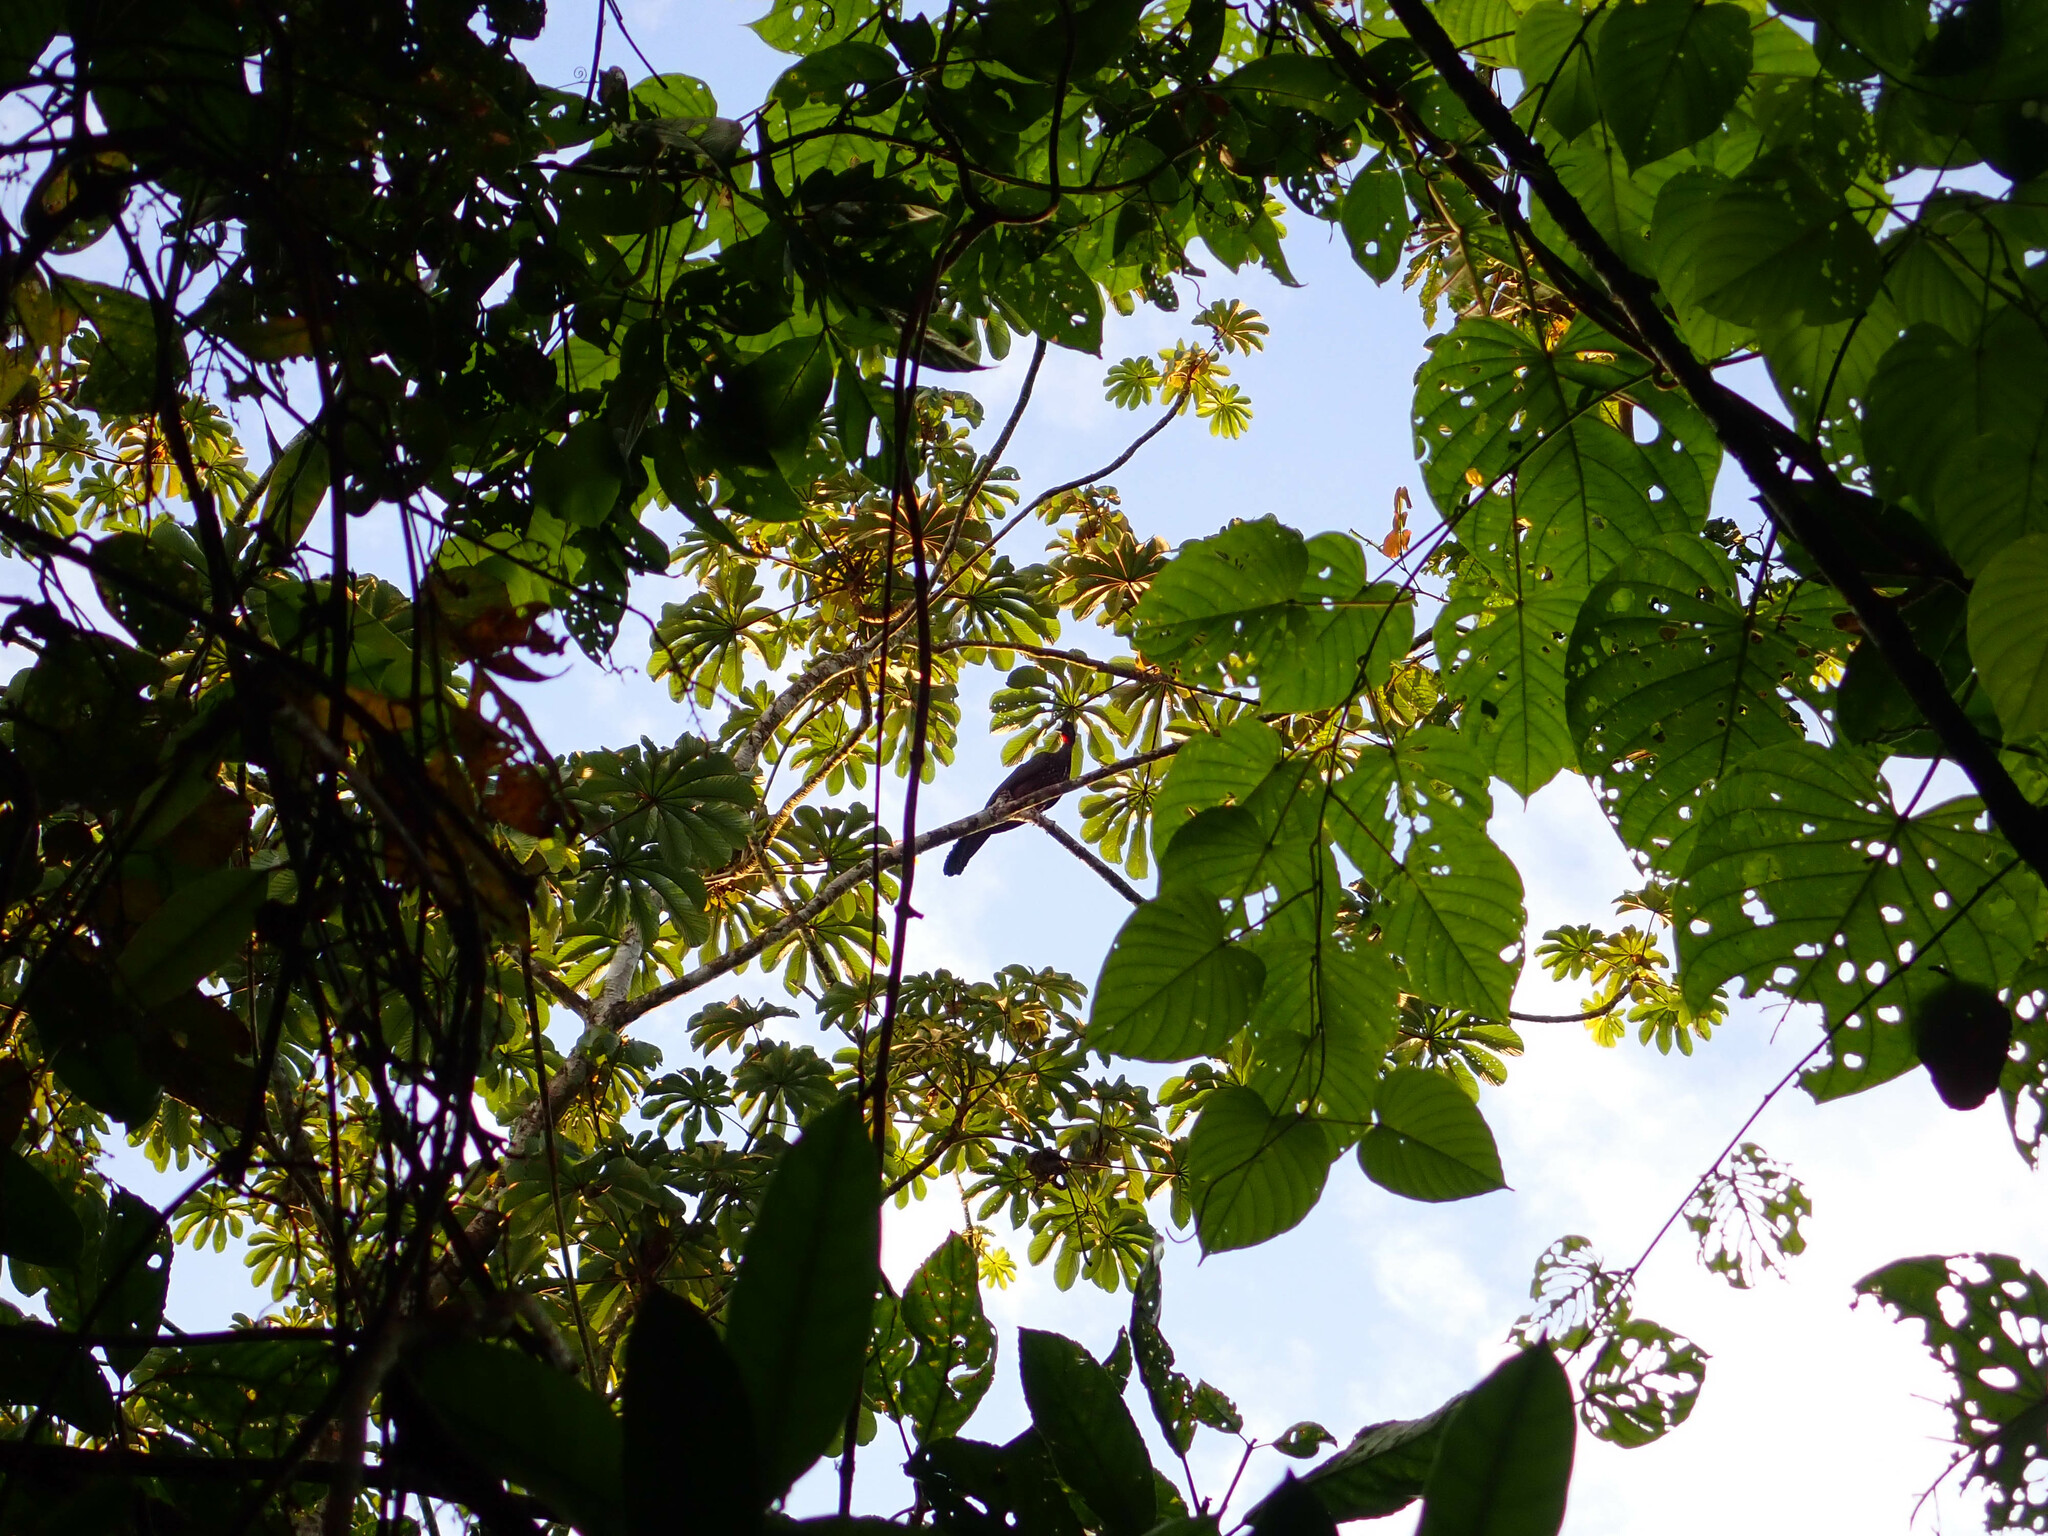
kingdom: Animalia
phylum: Chordata
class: Aves
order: Galliformes
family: Cracidae
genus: Penelope
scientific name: Penelope purpurascens
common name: Crested guan
